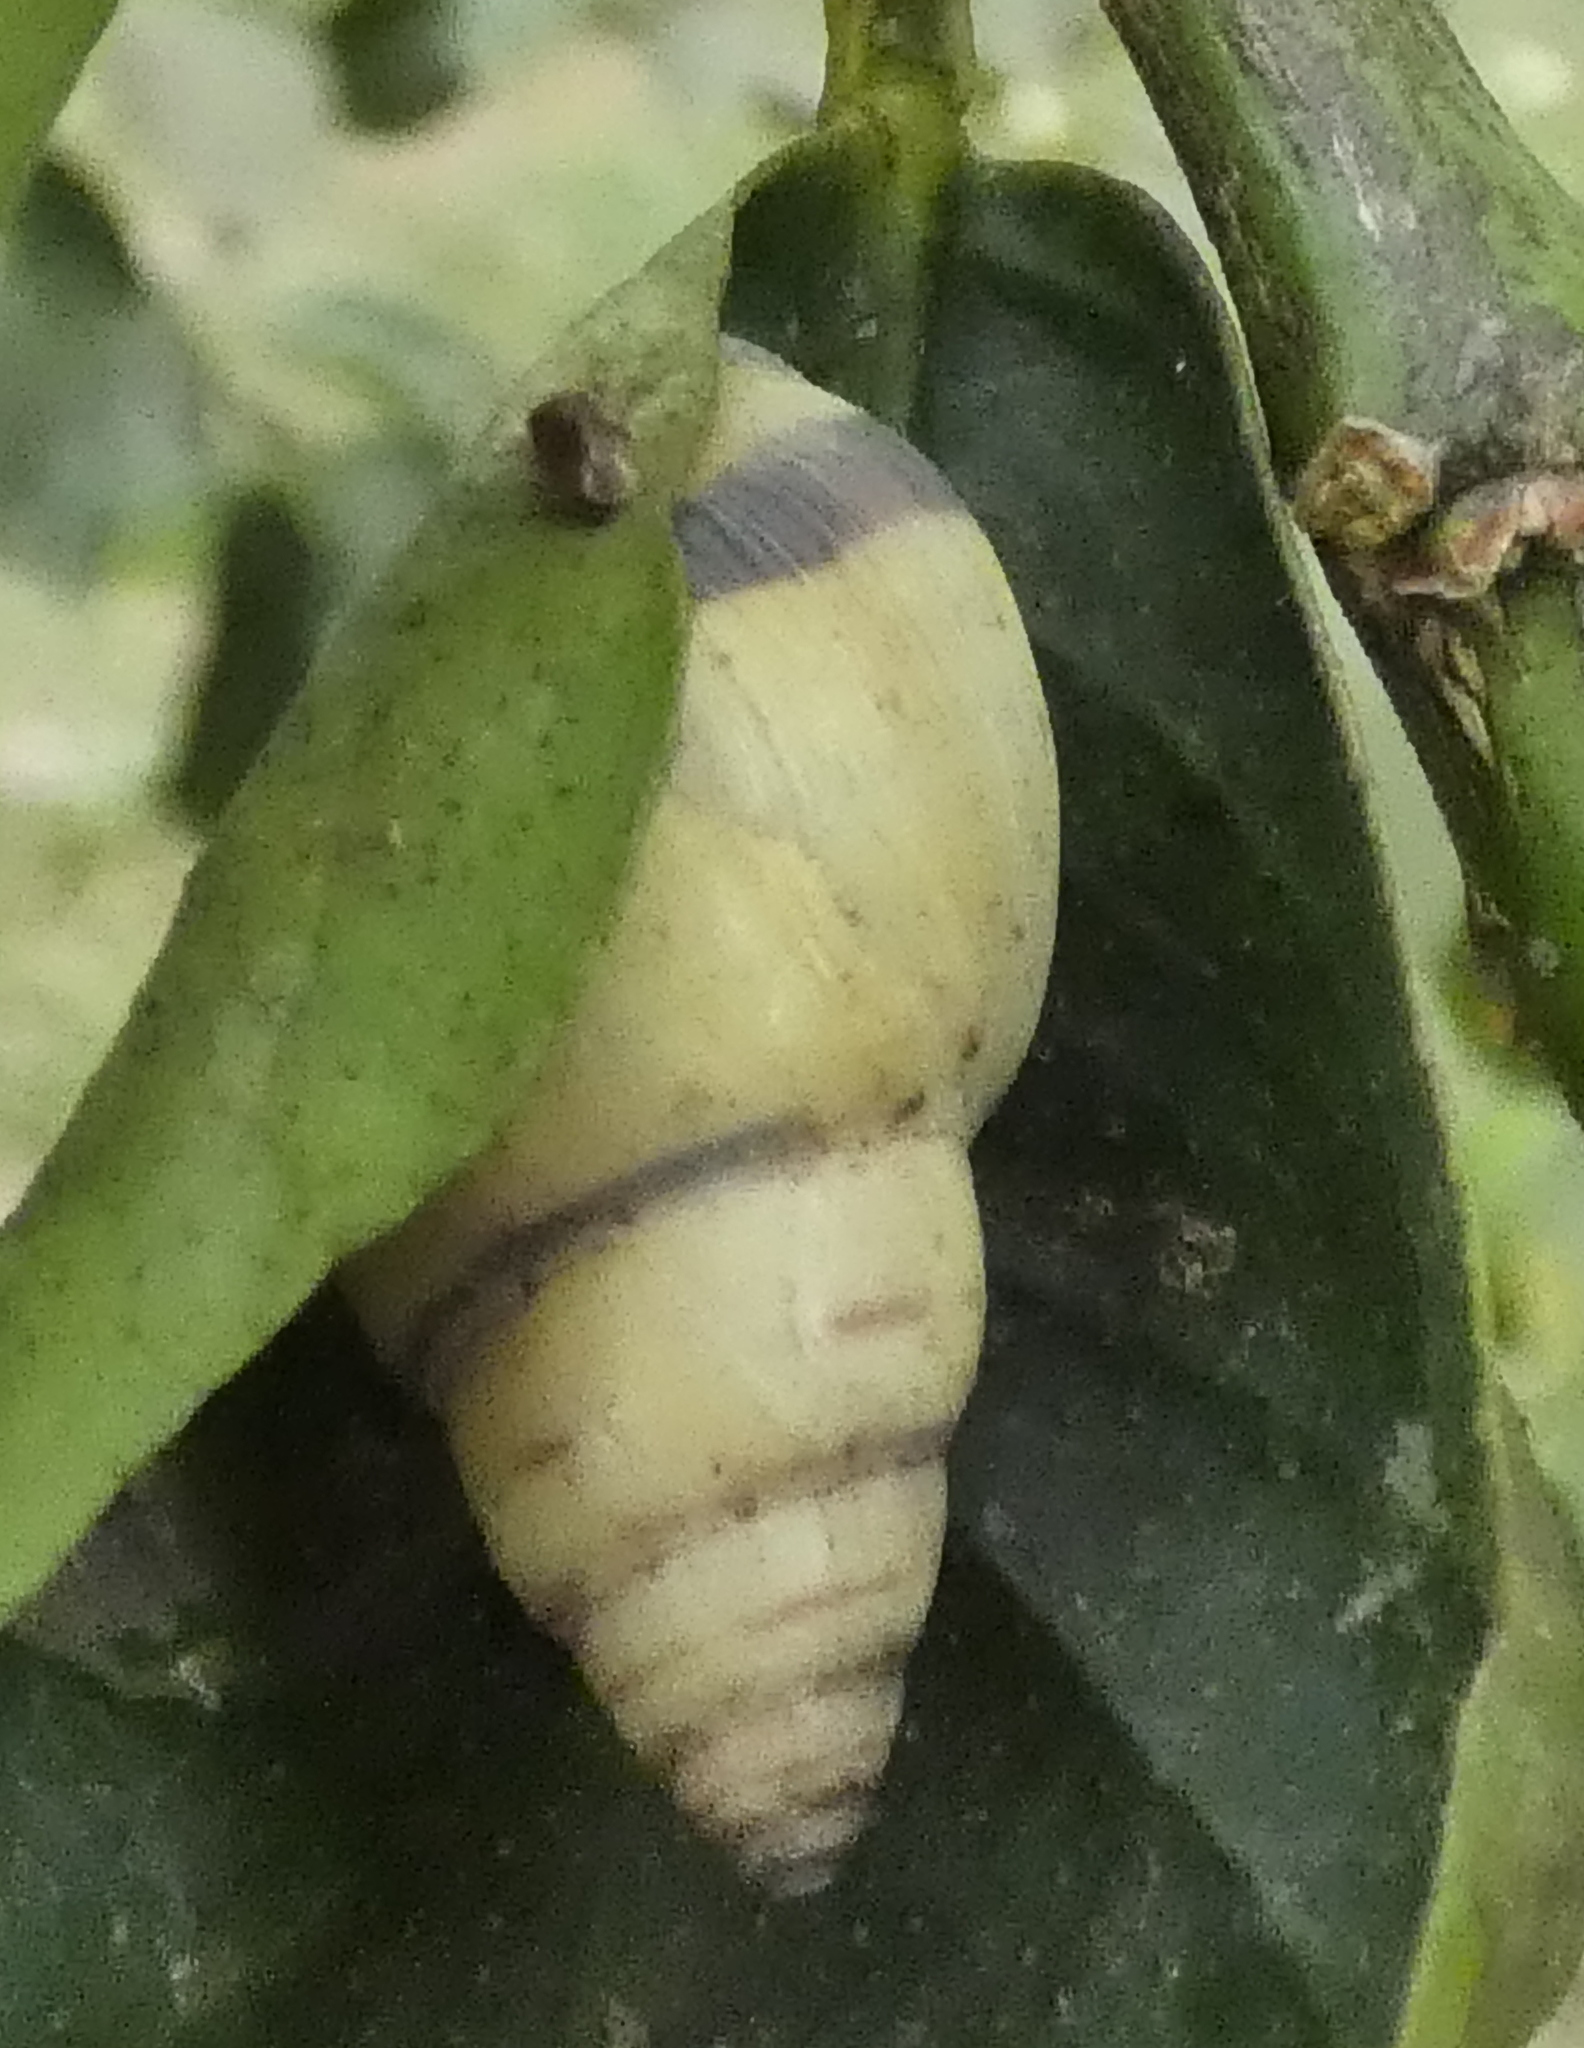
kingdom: Animalia
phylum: Mollusca
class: Gastropoda
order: Stylommatophora
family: Bulimulidae
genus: Drymaeus
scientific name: Drymaeus
